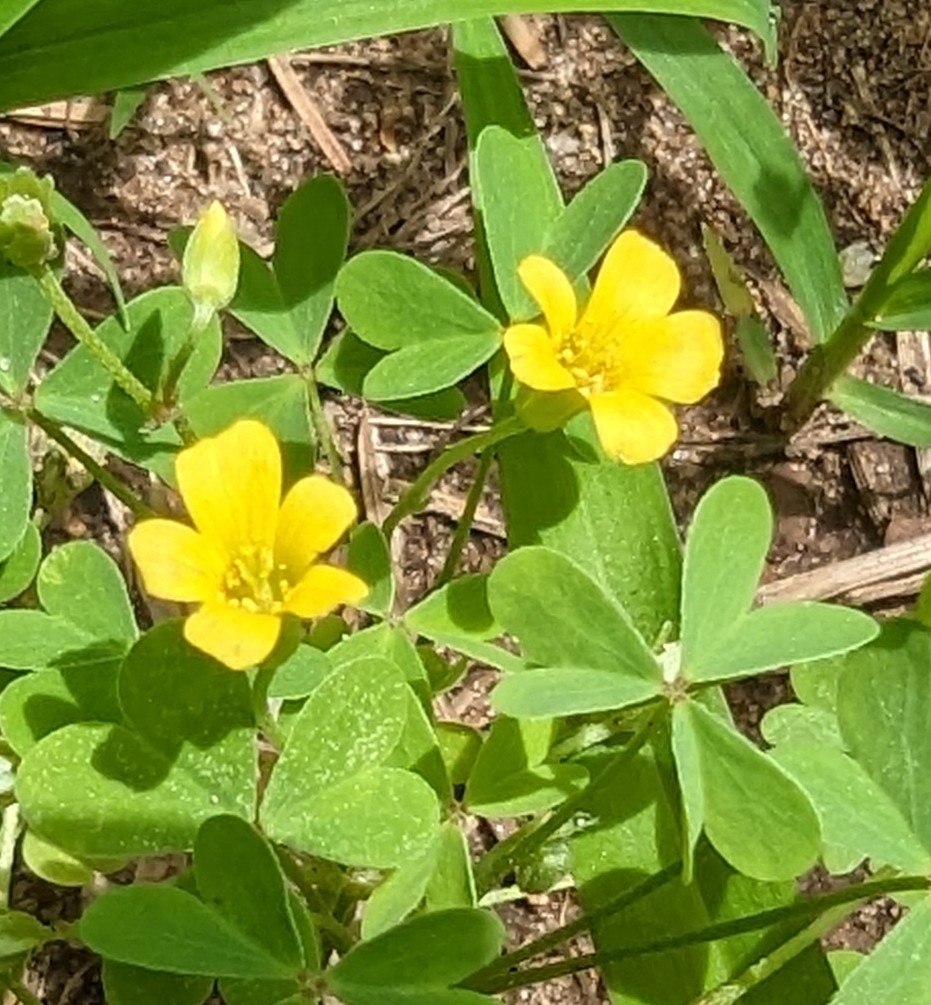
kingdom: Plantae
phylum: Tracheophyta
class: Magnoliopsida
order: Oxalidales
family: Oxalidaceae
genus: Oxalis
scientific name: Oxalis dillenii
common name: Sussex yellow-sorrel
